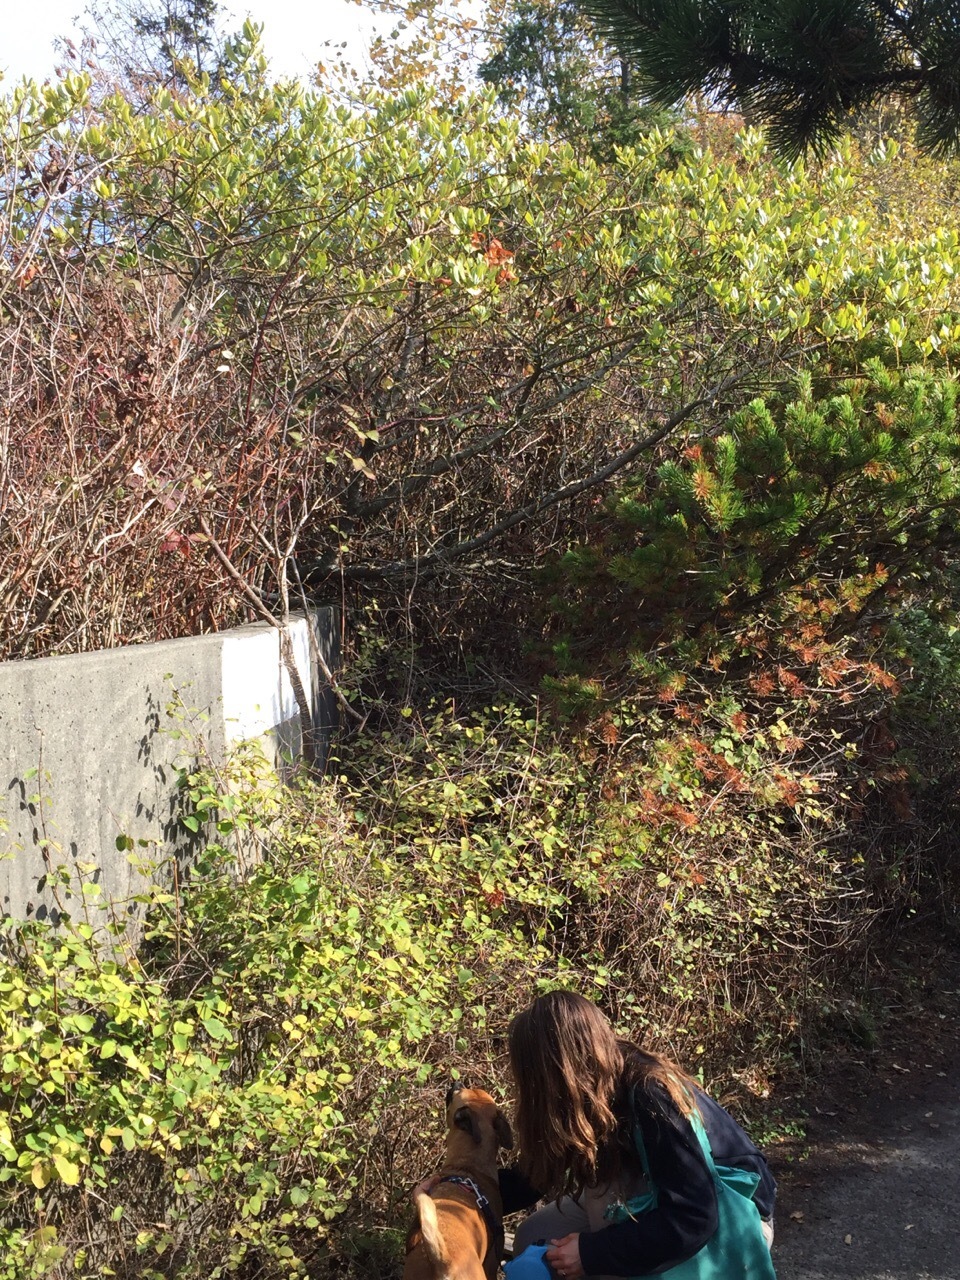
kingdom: Plantae
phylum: Tracheophyta
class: Magnoliopsida
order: Rosales
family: Rhamnaceae
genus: Ceanothus
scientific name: Ceanothus velutinus
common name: Snowbrush
